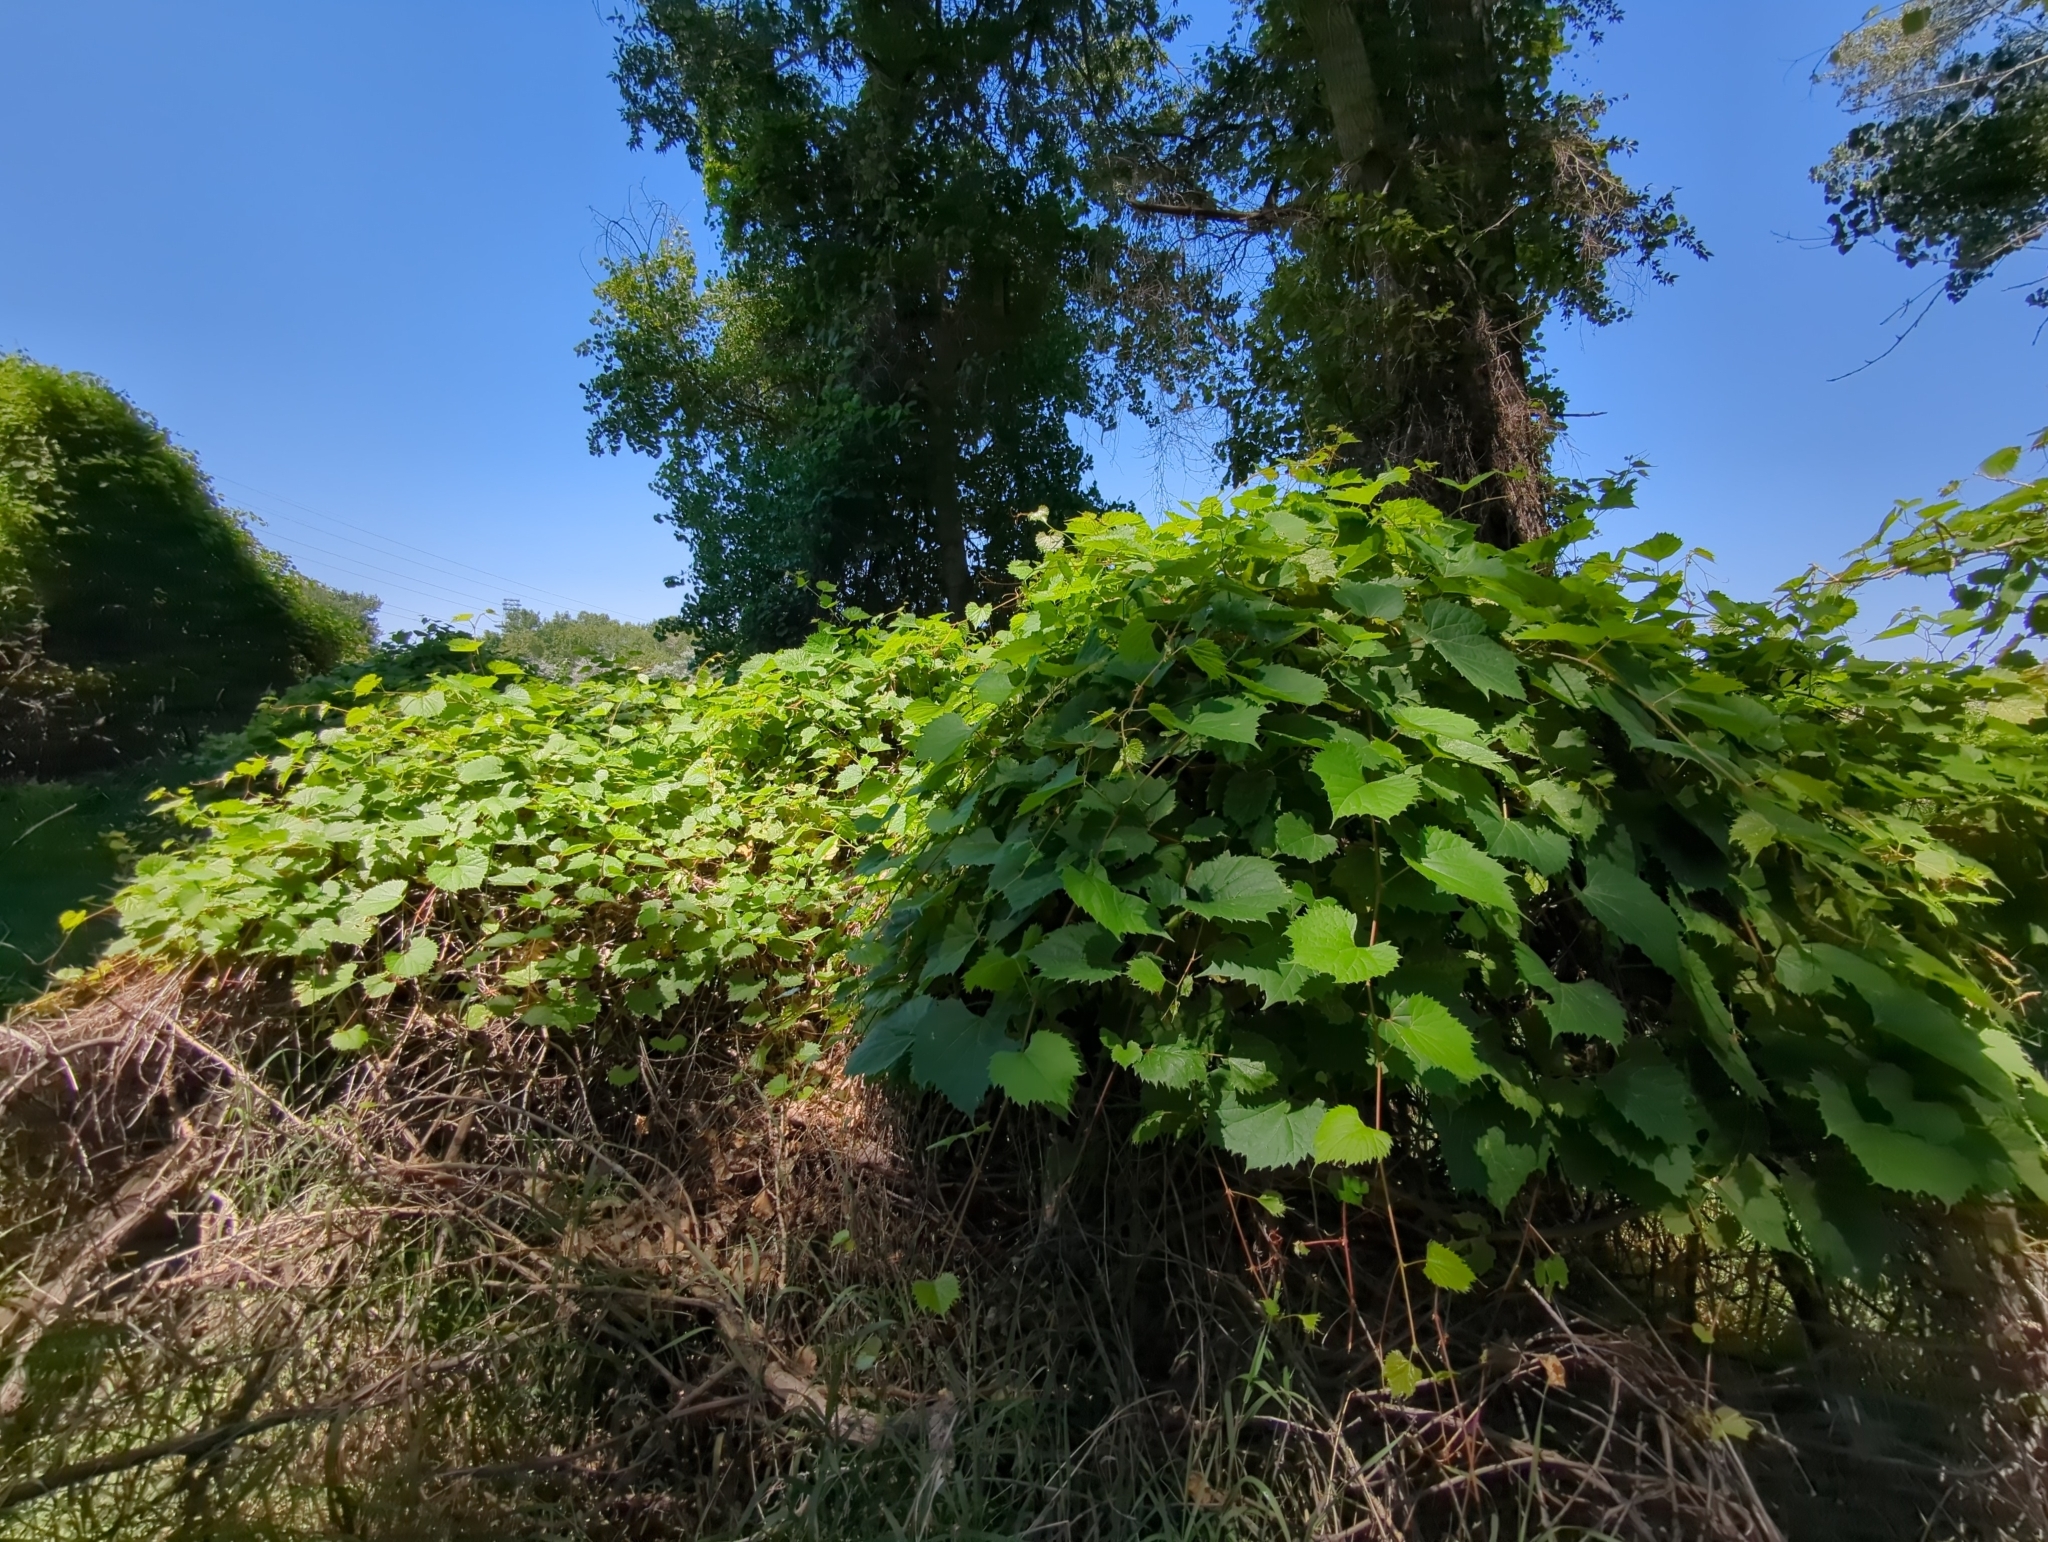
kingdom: Plantae
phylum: Tracheophyta
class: Magnoliopsida
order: Vitales
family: Vitaceae
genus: Vitis
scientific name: Vitis riparia
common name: Frost grape
